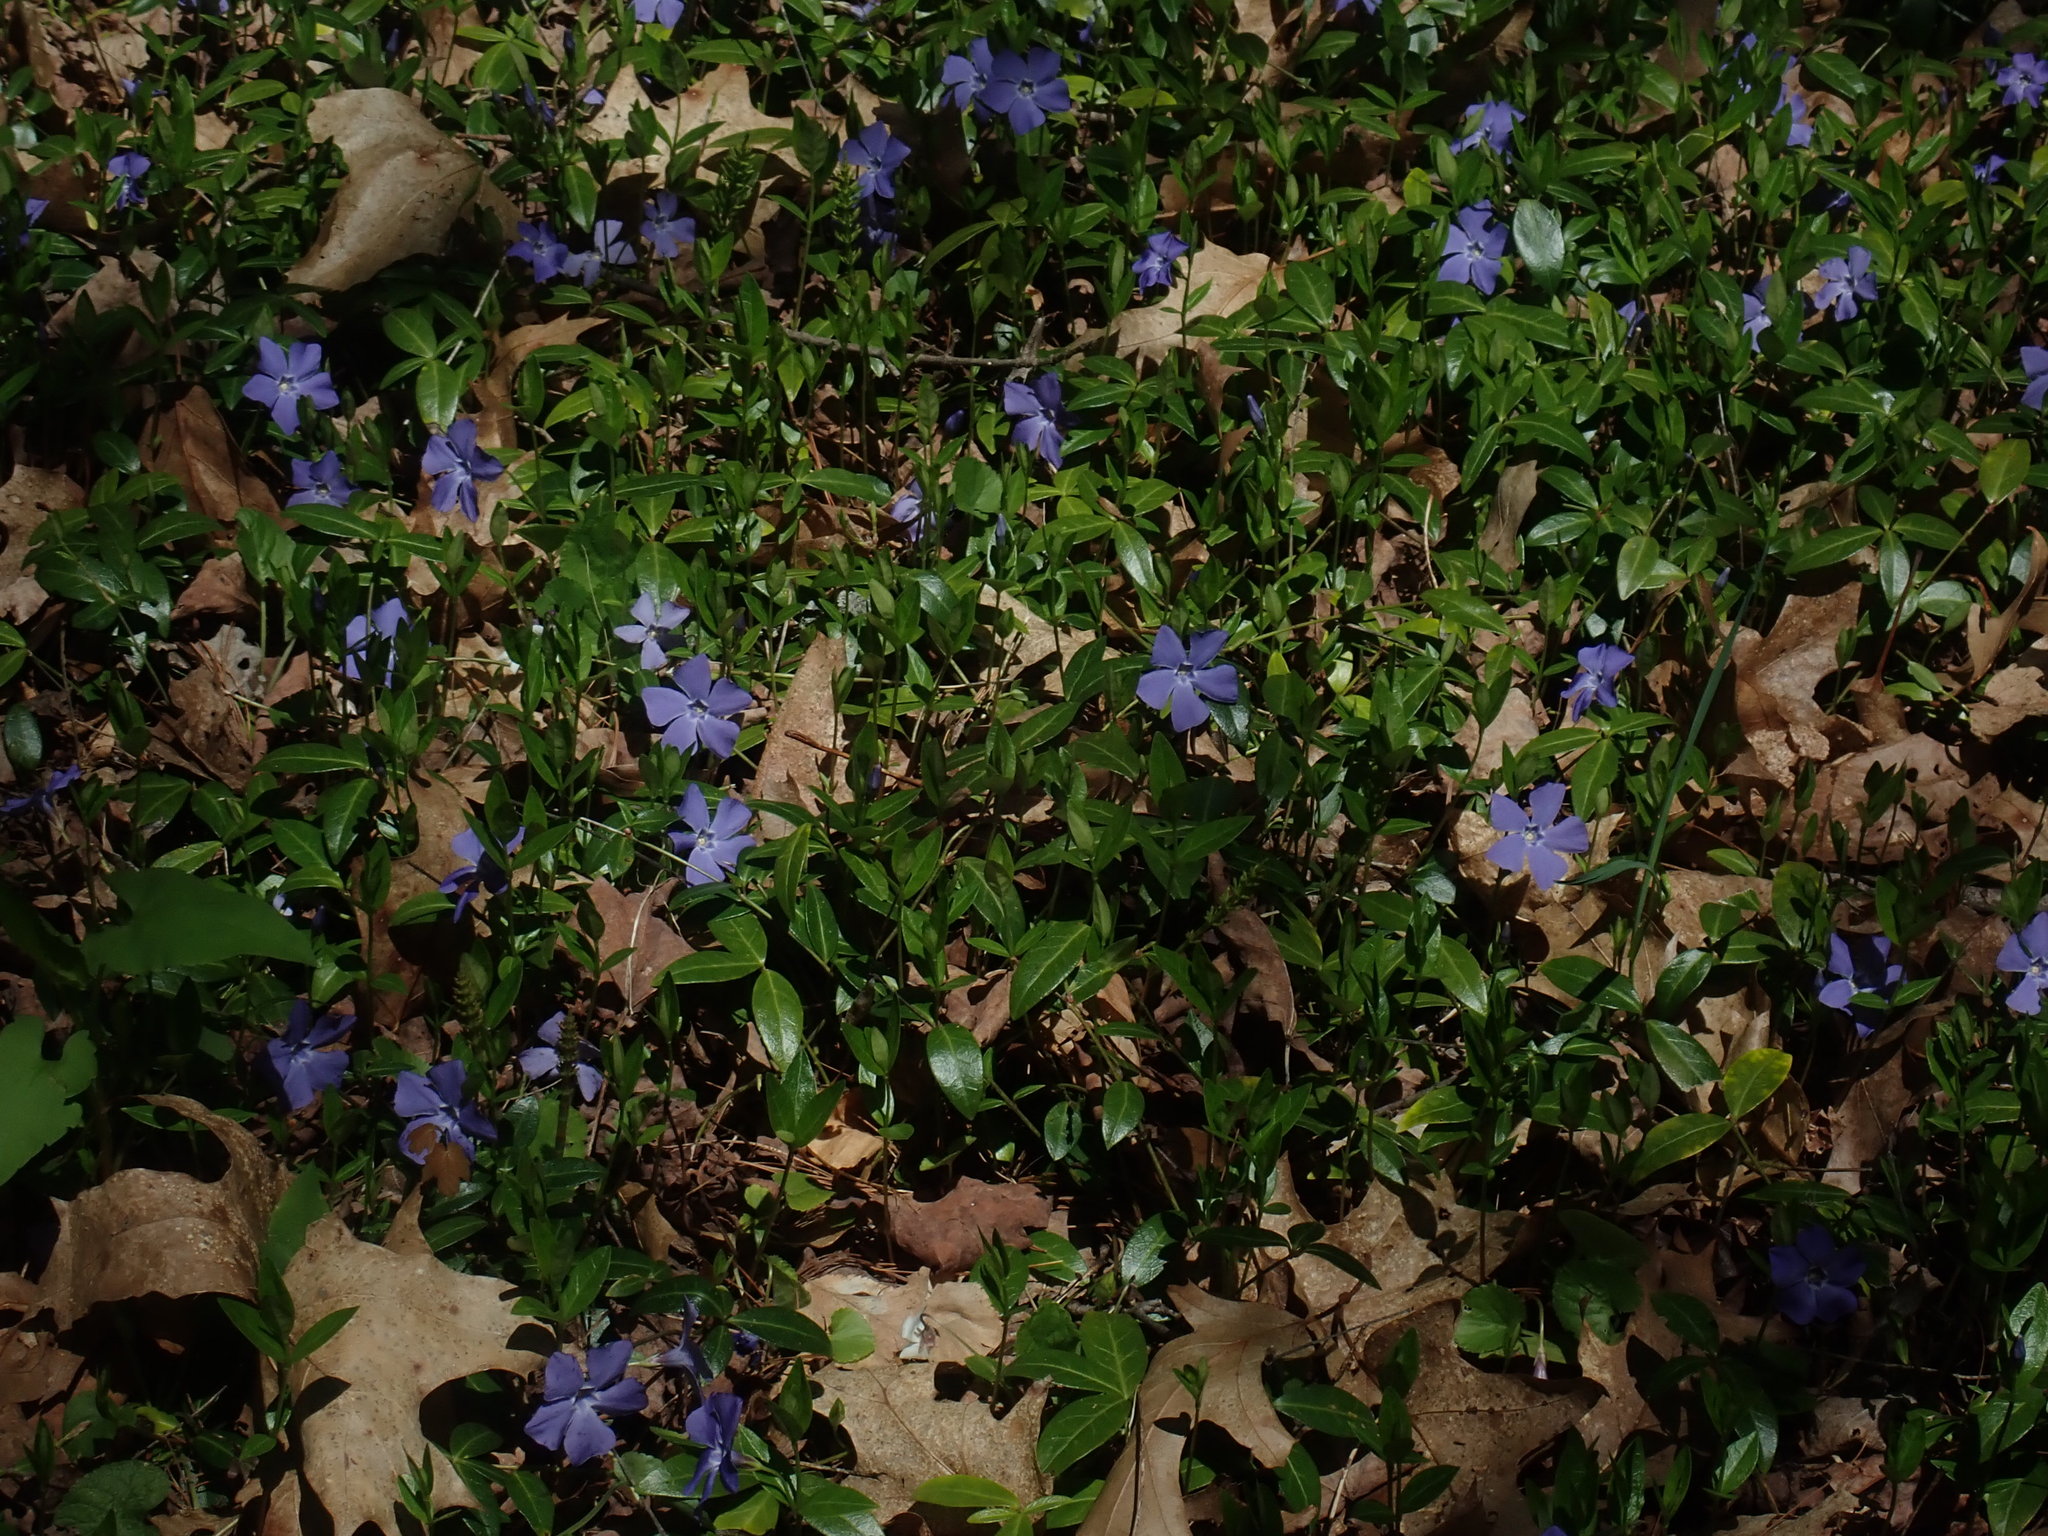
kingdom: Plantae
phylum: Tracheophyta
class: Magnoliopsida
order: Gentianales
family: Apocynaceae
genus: Vinca
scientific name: Vinca minor
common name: Lesser periwinkle
